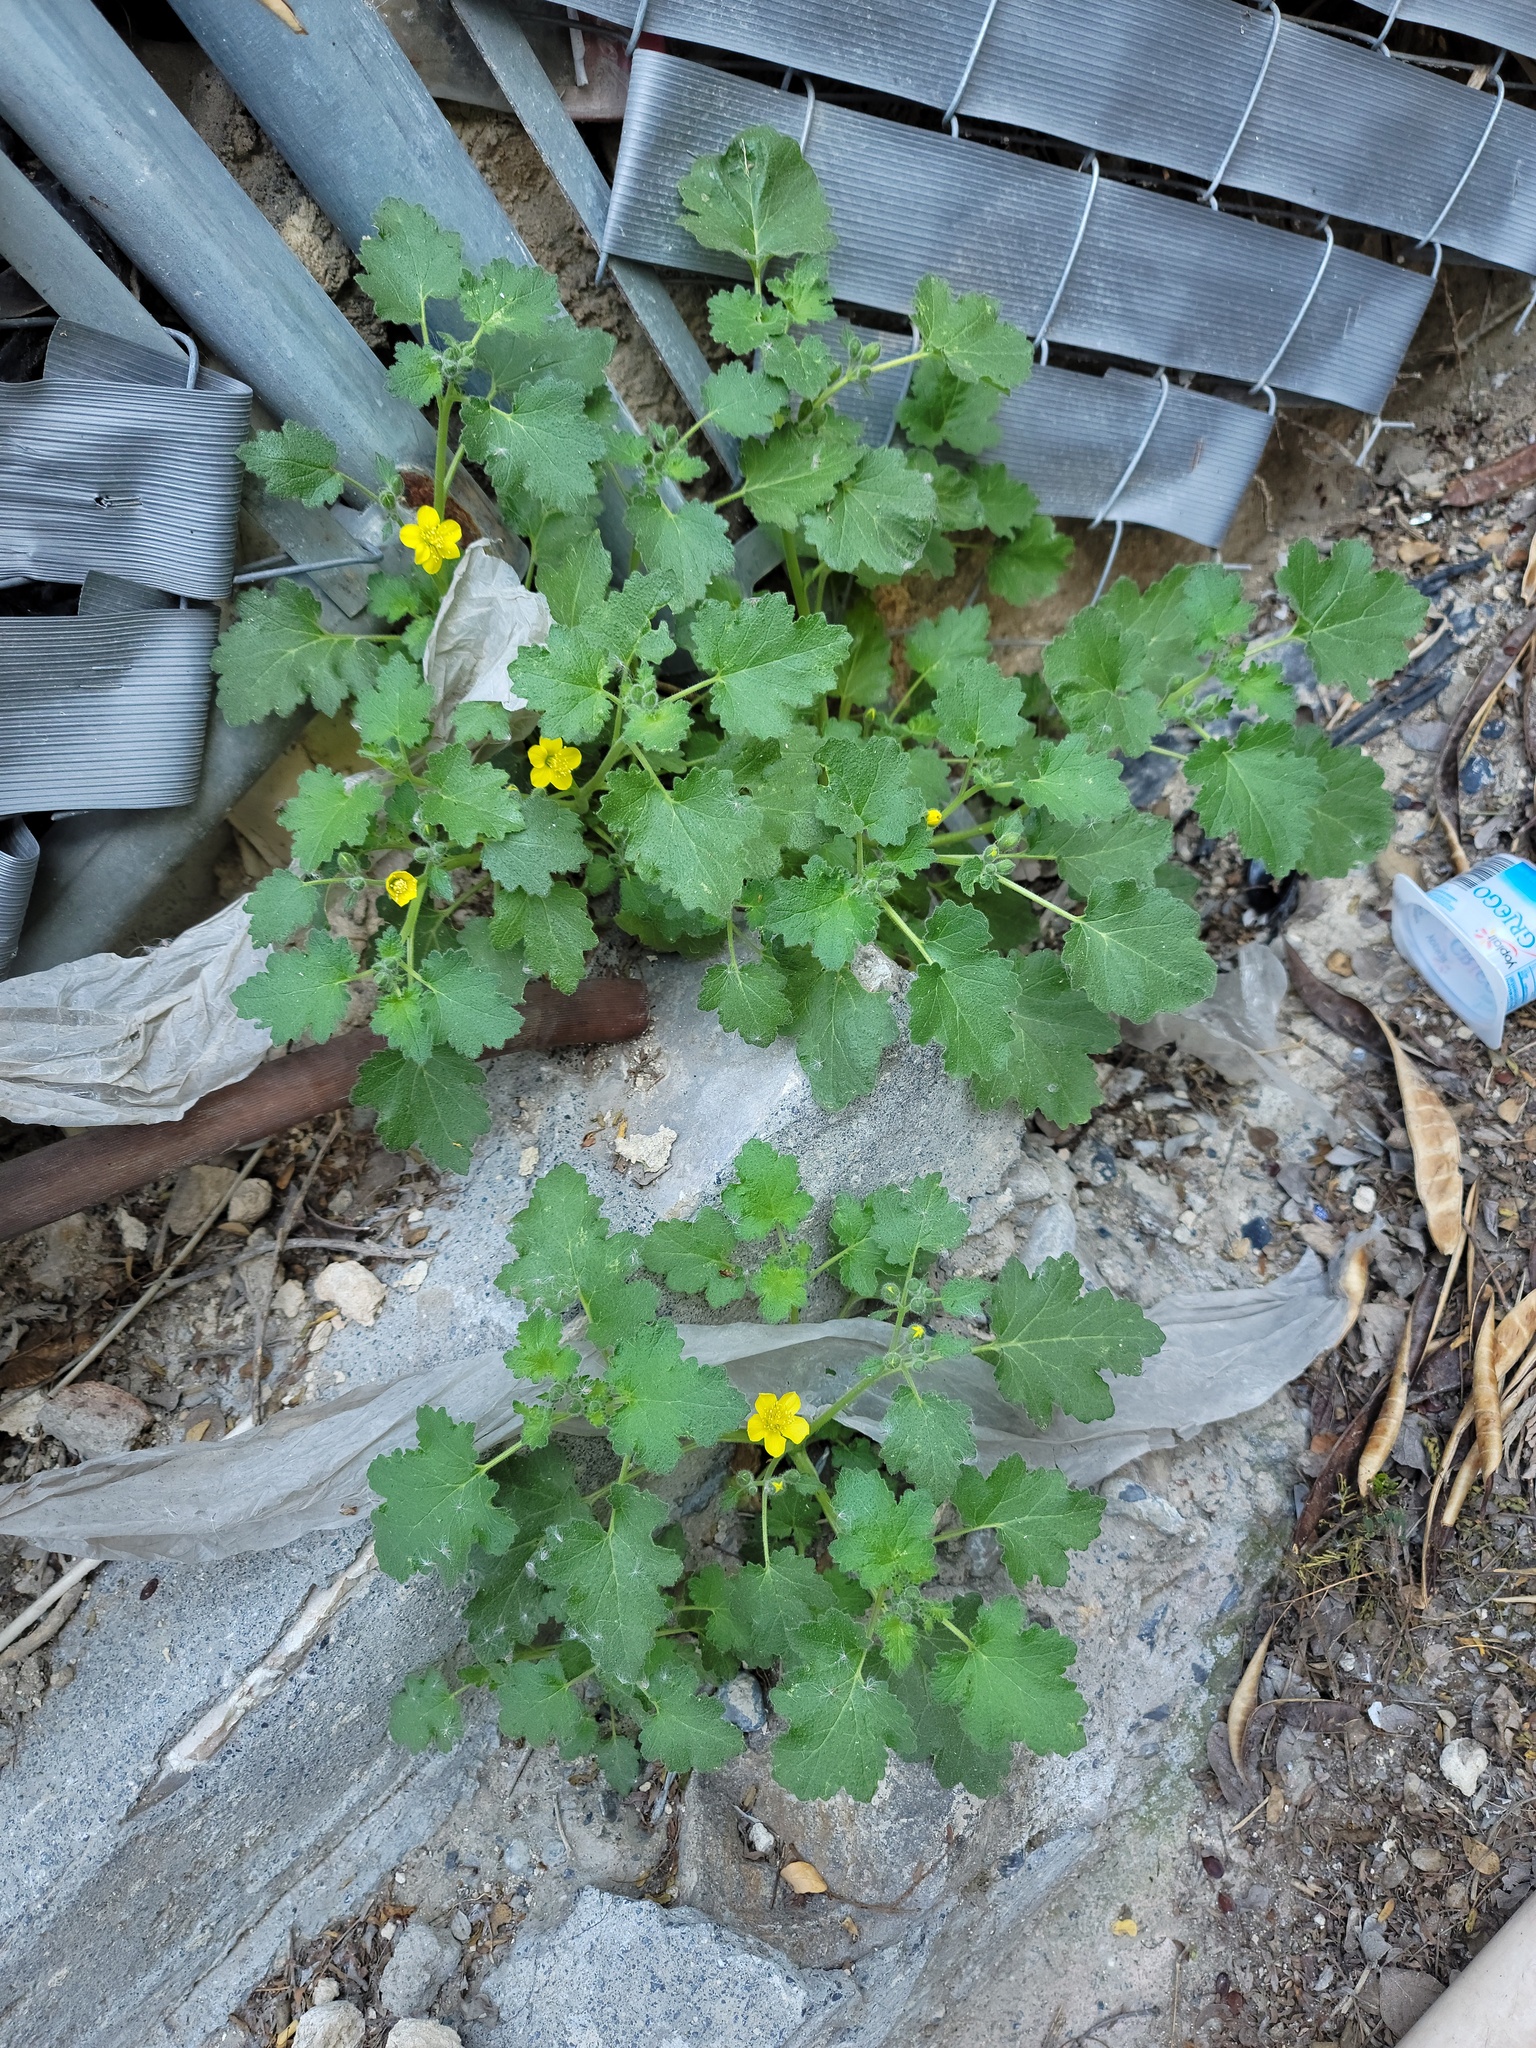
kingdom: Plantae
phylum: Tracheophyta
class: Magnoliopsida
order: Cornales
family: Loasaceae
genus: Eucnide
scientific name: Eucnide lobata
